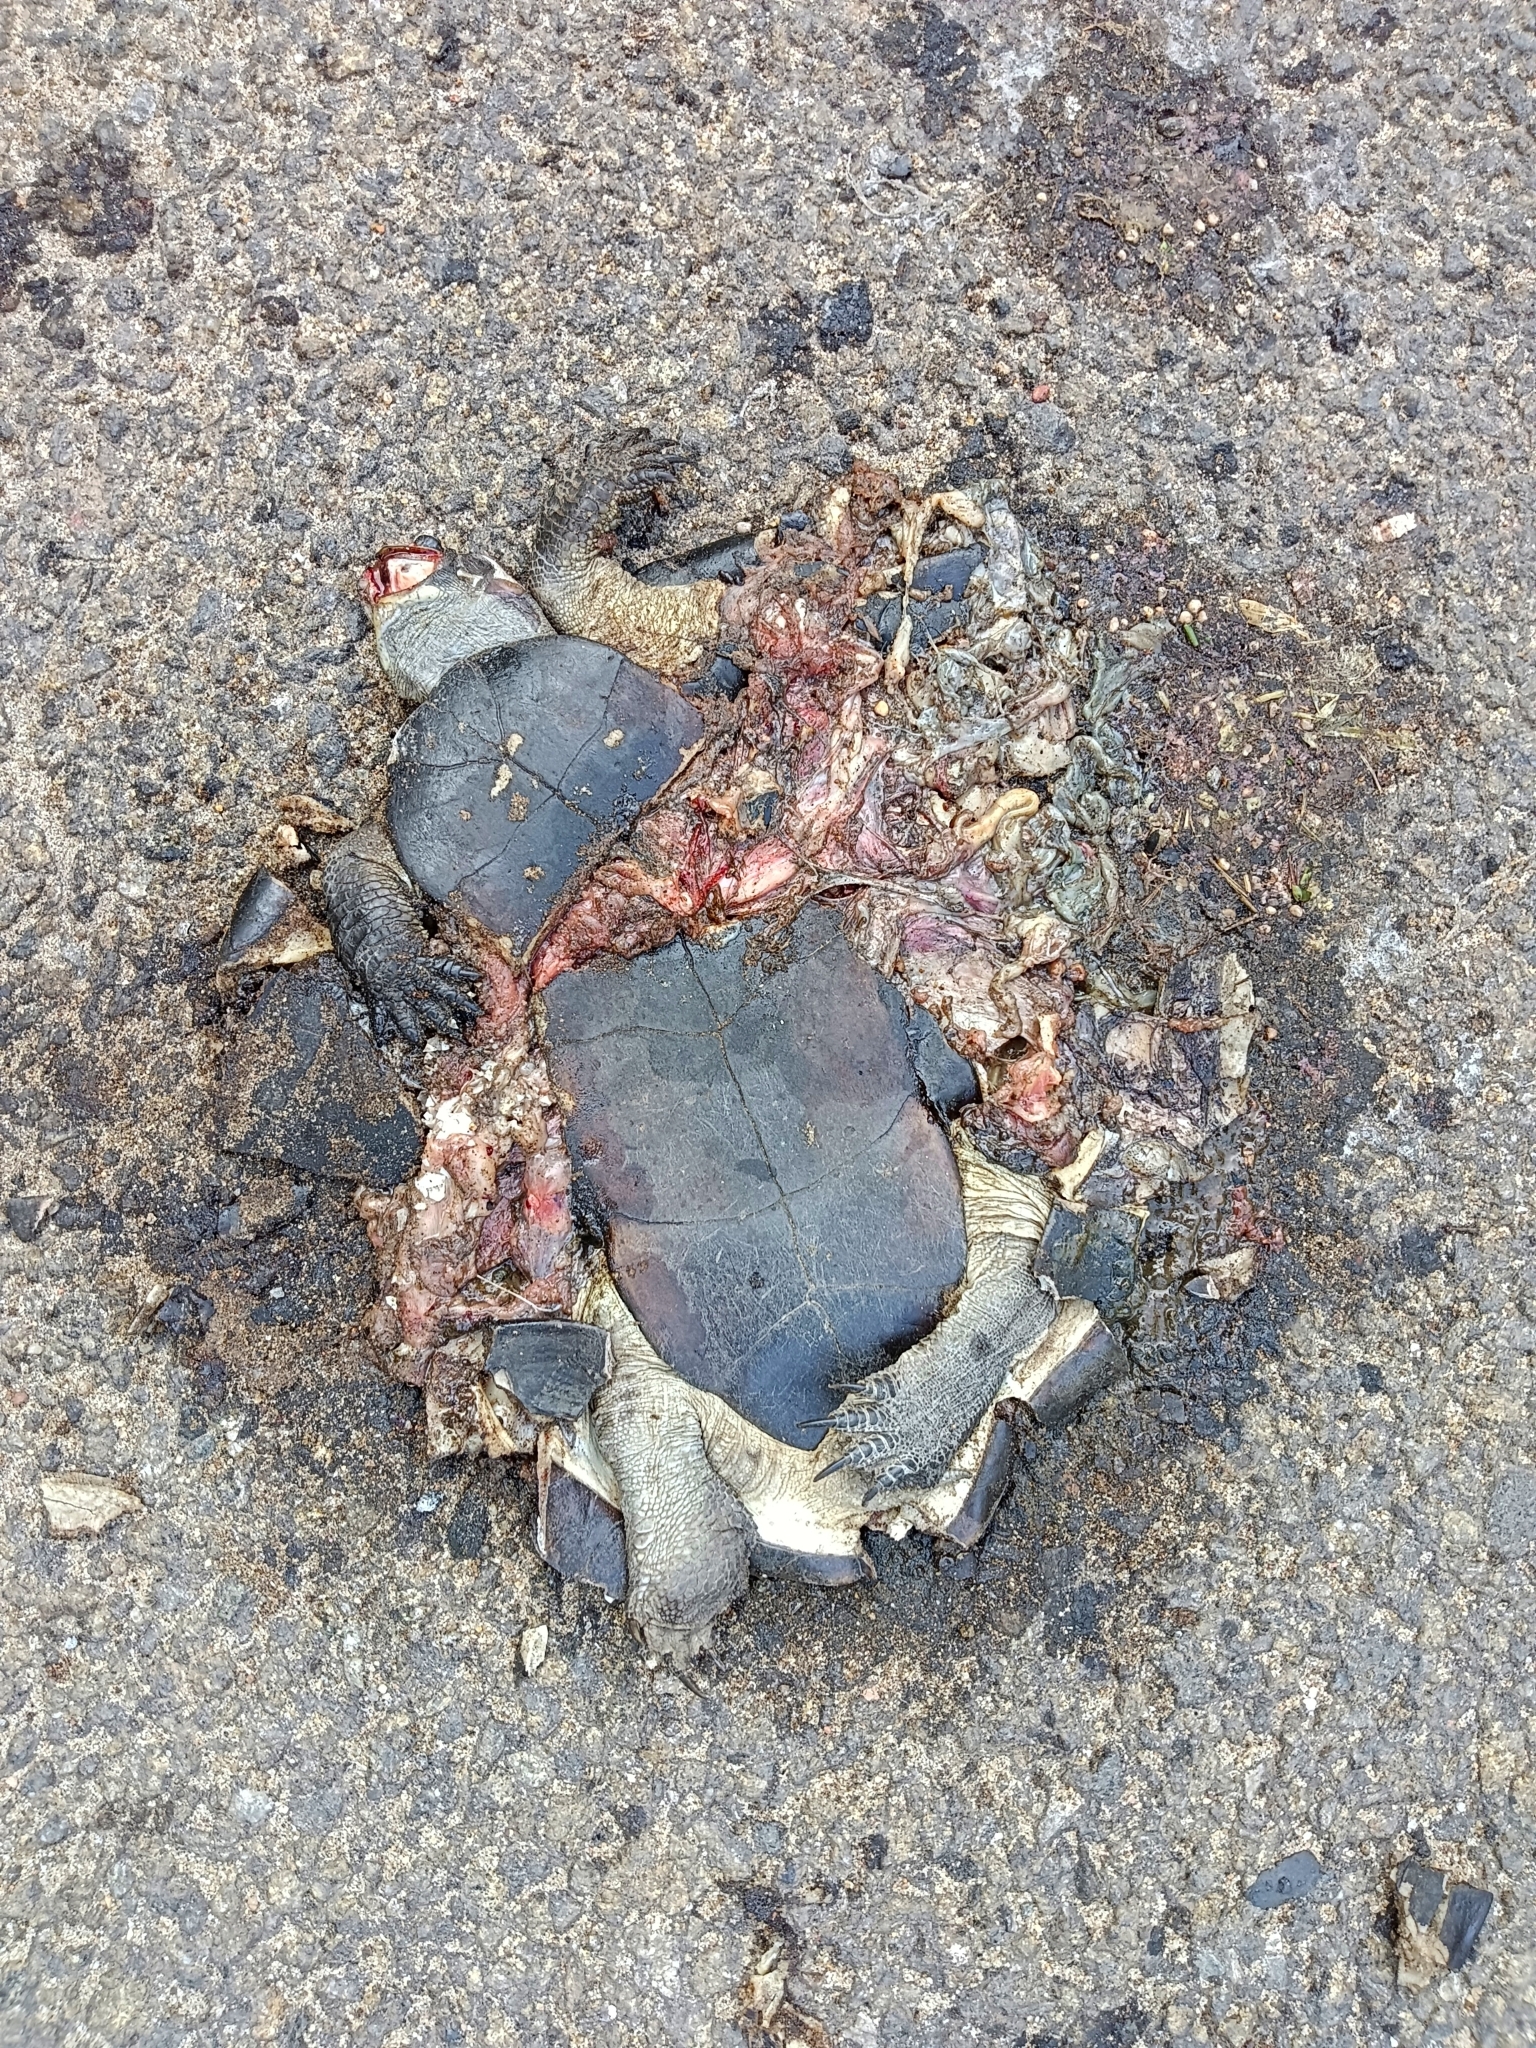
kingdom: Animalia
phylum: Chordata
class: Testudines
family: Geoemydidae
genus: Melanochelys
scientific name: Melanochelys trijuga
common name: Indian black turtle
